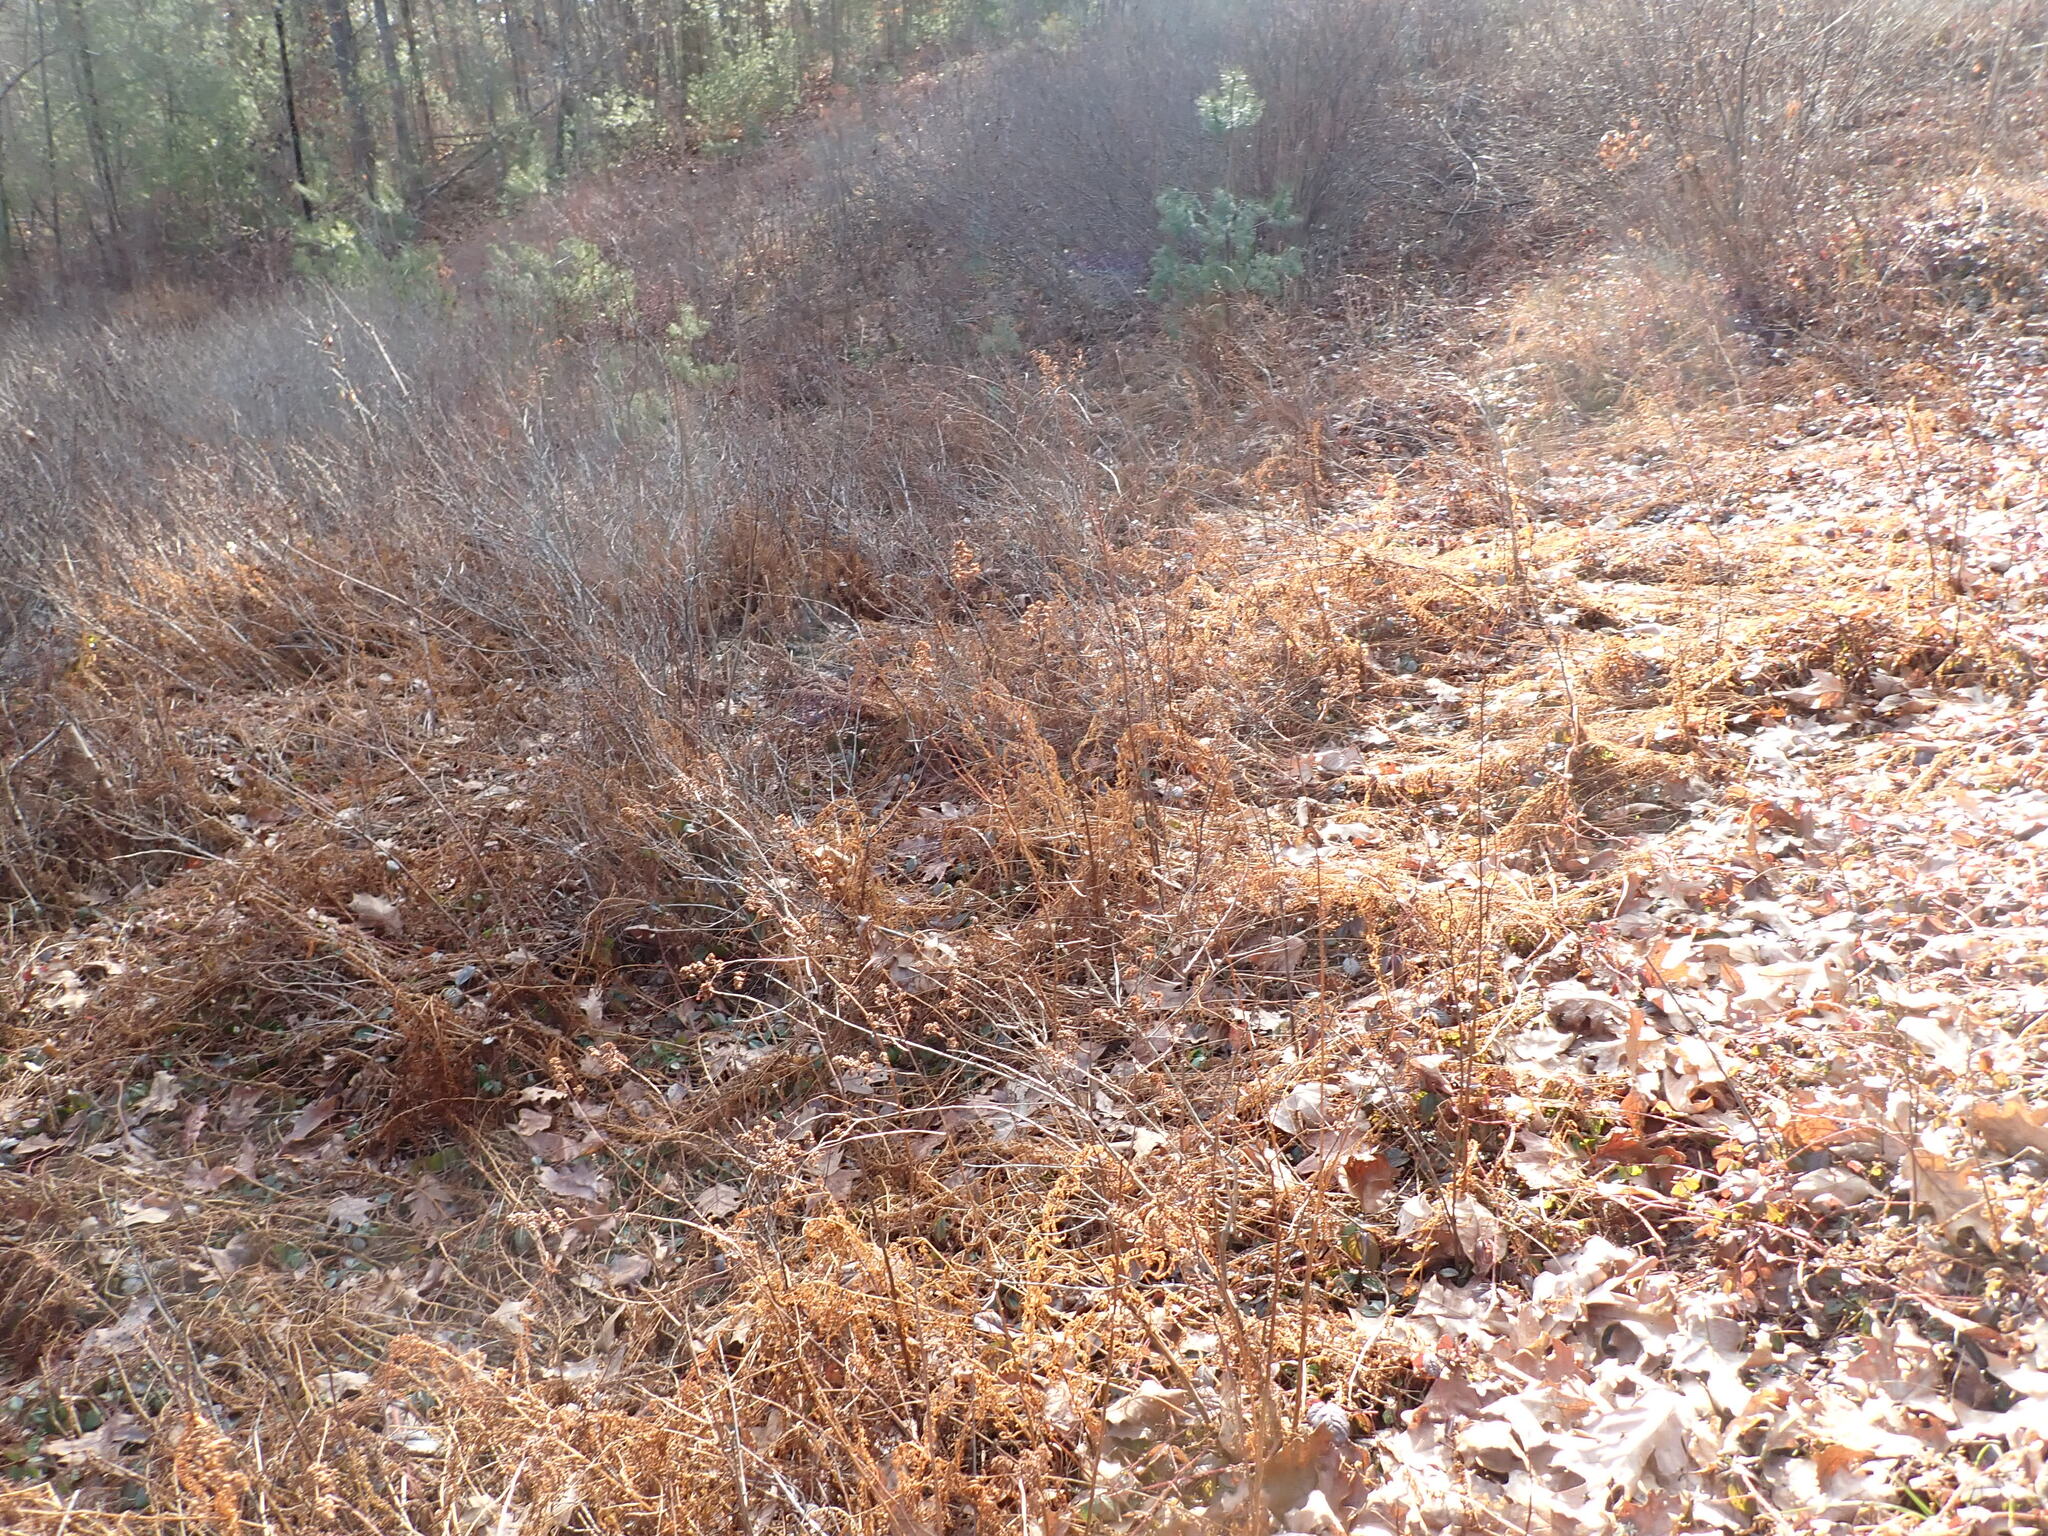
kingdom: Plantae
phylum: Tracheophyta
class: Polypodiopsida
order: Polypodiales
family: Dennstaedtiaceae
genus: Sitobolium
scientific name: Sitobolium punctilobum
